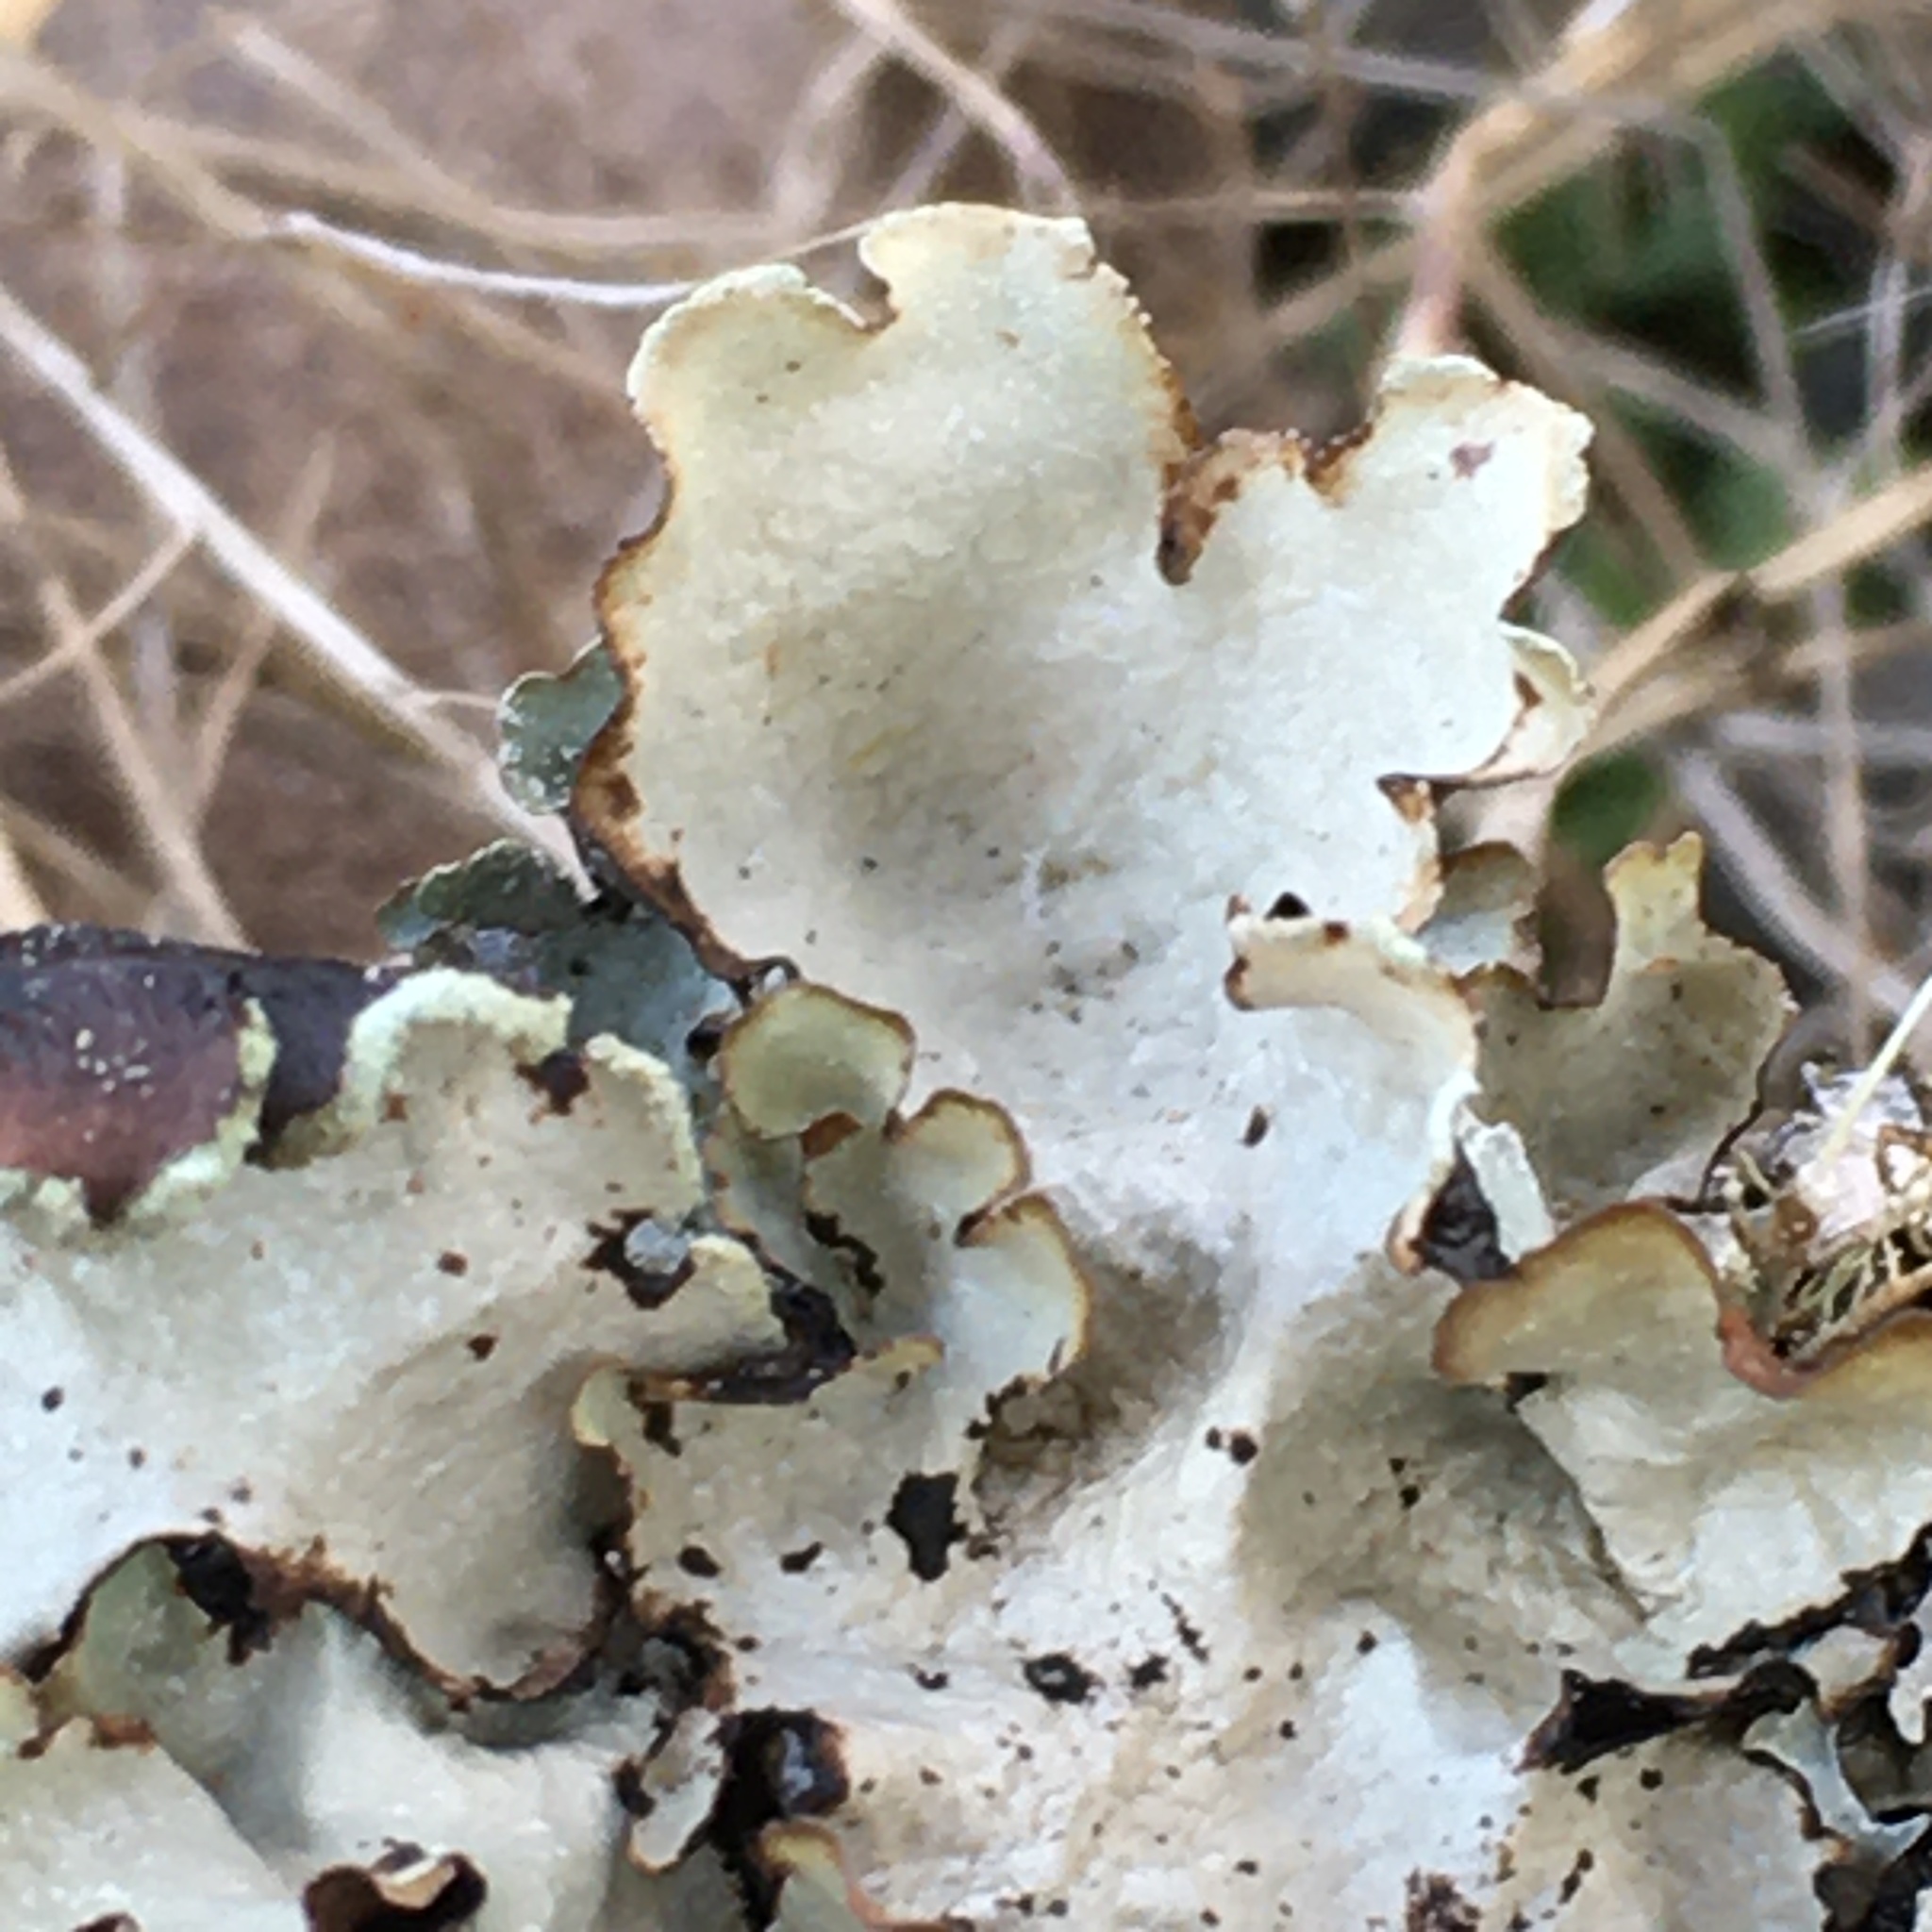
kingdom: Fungi
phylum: Ascomycota
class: Lecanoromycetes
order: Lecanorales
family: Parmeliaceae
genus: Cetrelia
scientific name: Cetrelia cetrarioides
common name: Speckled iceland lichen
